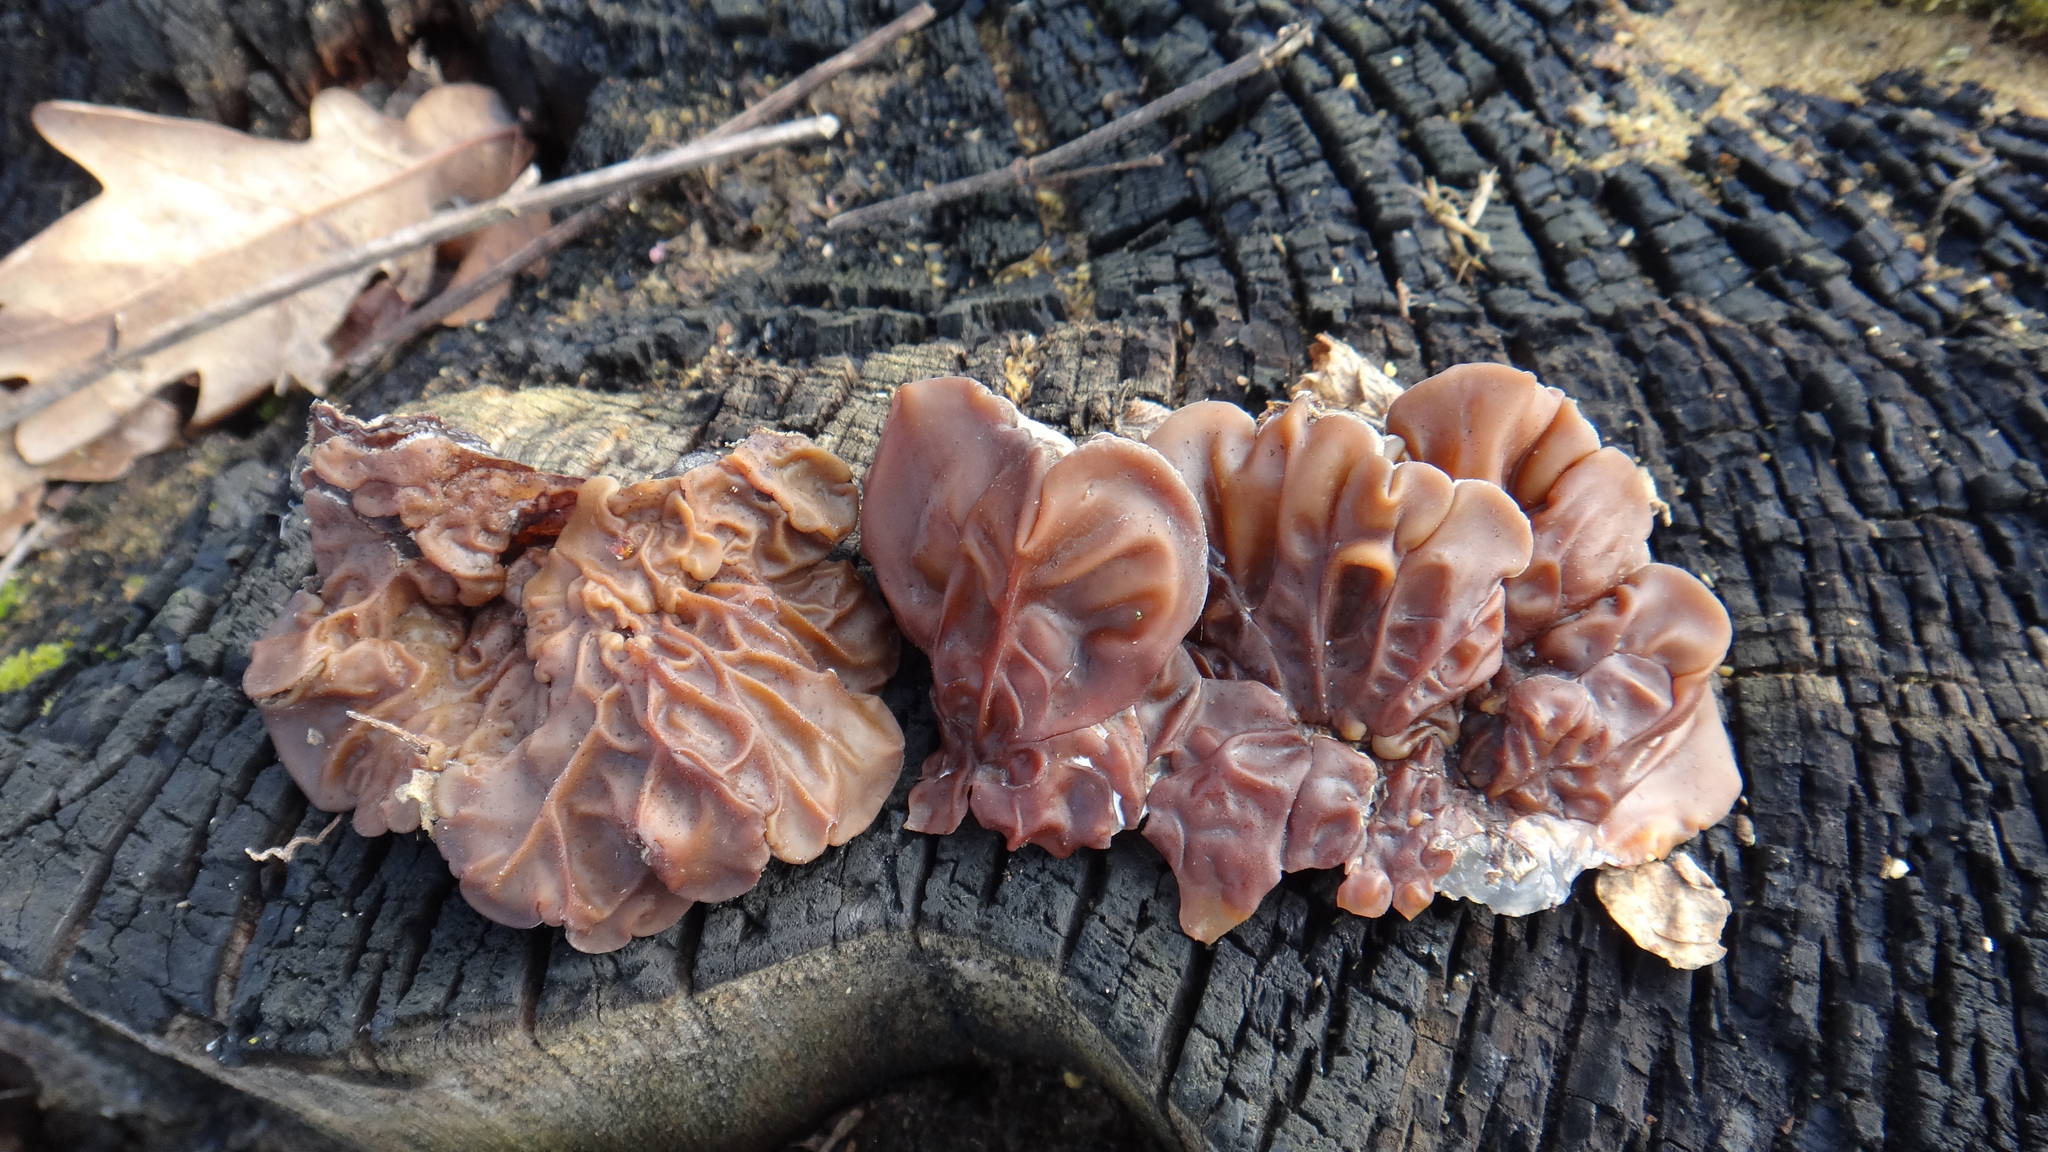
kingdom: Fungi
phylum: Basidiomycota
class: Agaricomycetes
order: Auriculariales
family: Auriculariaceae
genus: Auricularia
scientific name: Auricularia mesenterica
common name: Tripe fungus
